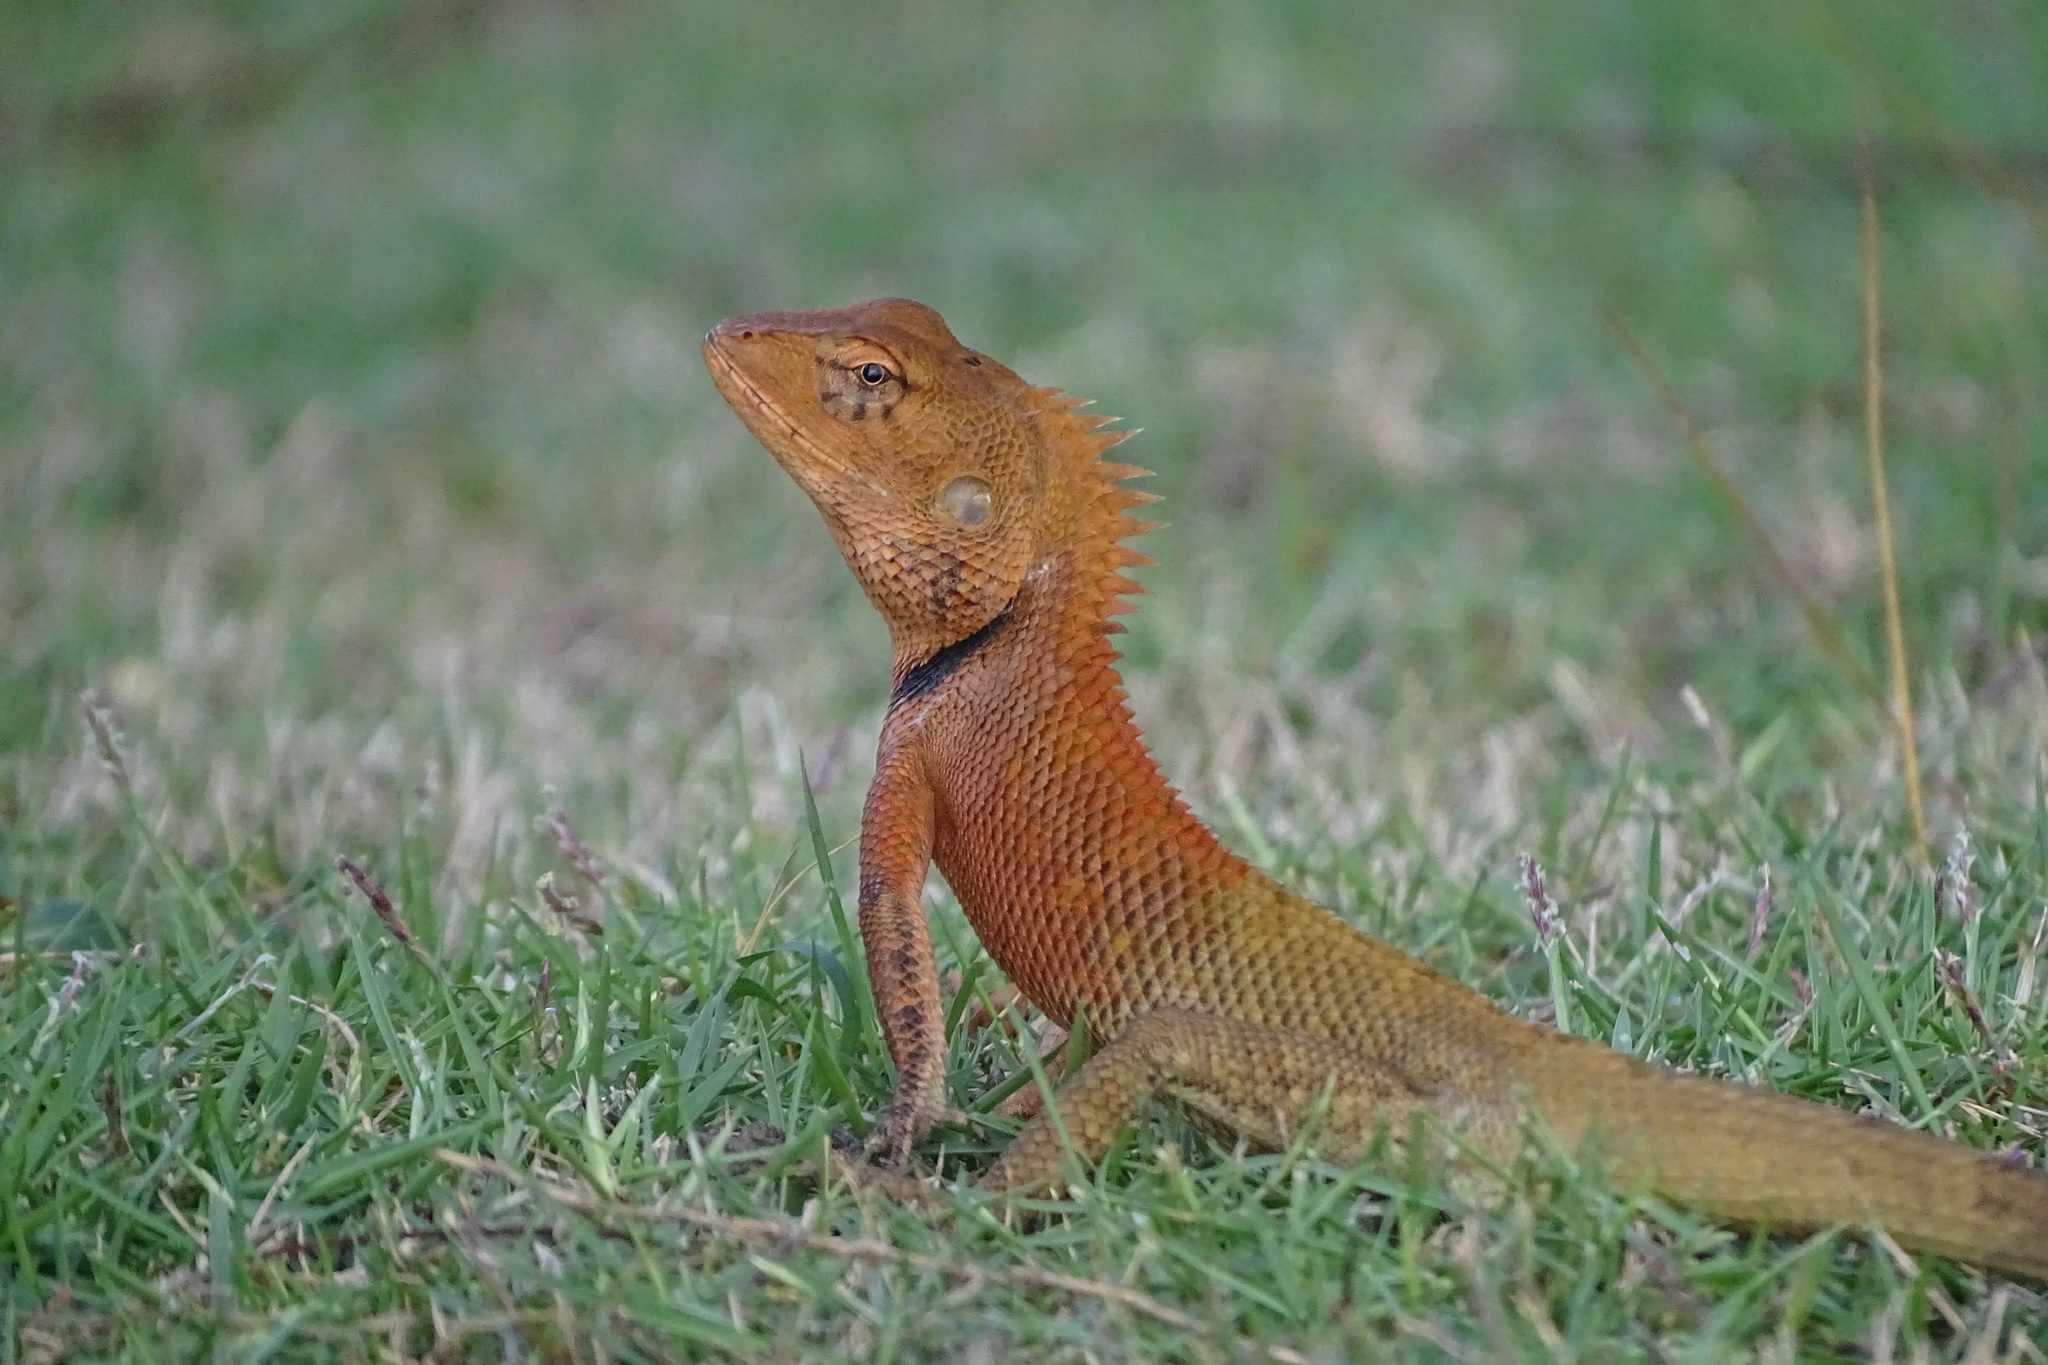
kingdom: Animalia
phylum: Chordata
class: Squamata
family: Agamidae
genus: Calotes
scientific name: Calotes versicolor
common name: Oriental garden lizard
